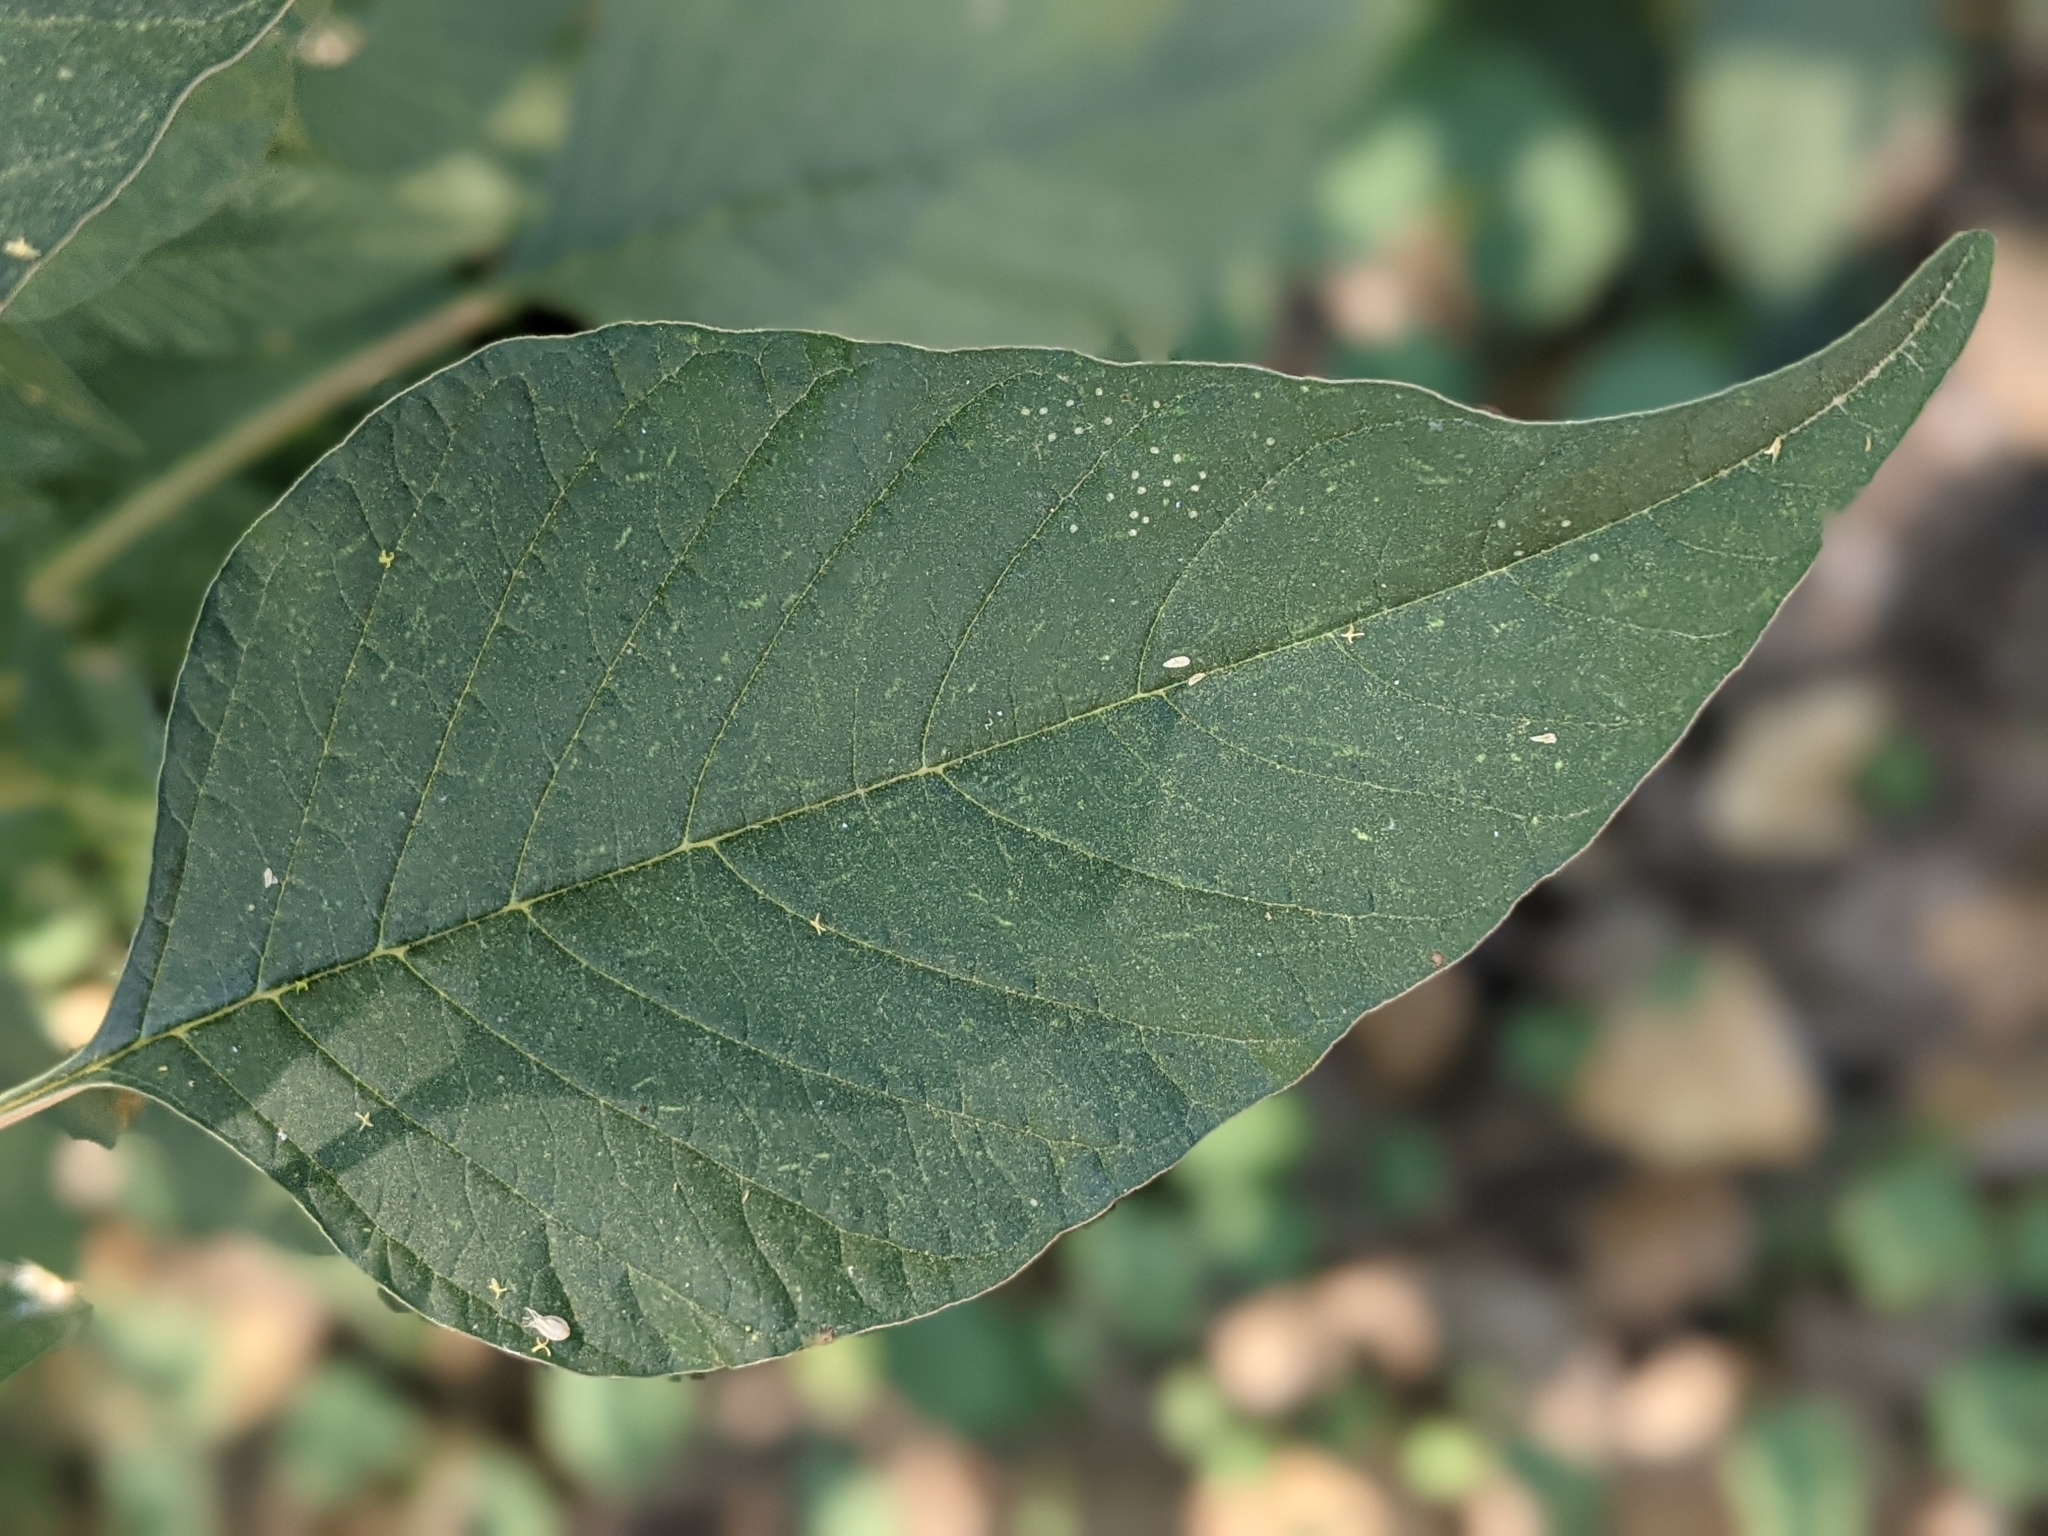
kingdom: Plantae
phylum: Tracheophyta
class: Magnoliopsida
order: Caryophyllales
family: Amaranthaceae
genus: Amaranthus
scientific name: Amaranthus palmeri
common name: Dioecious amaranth
